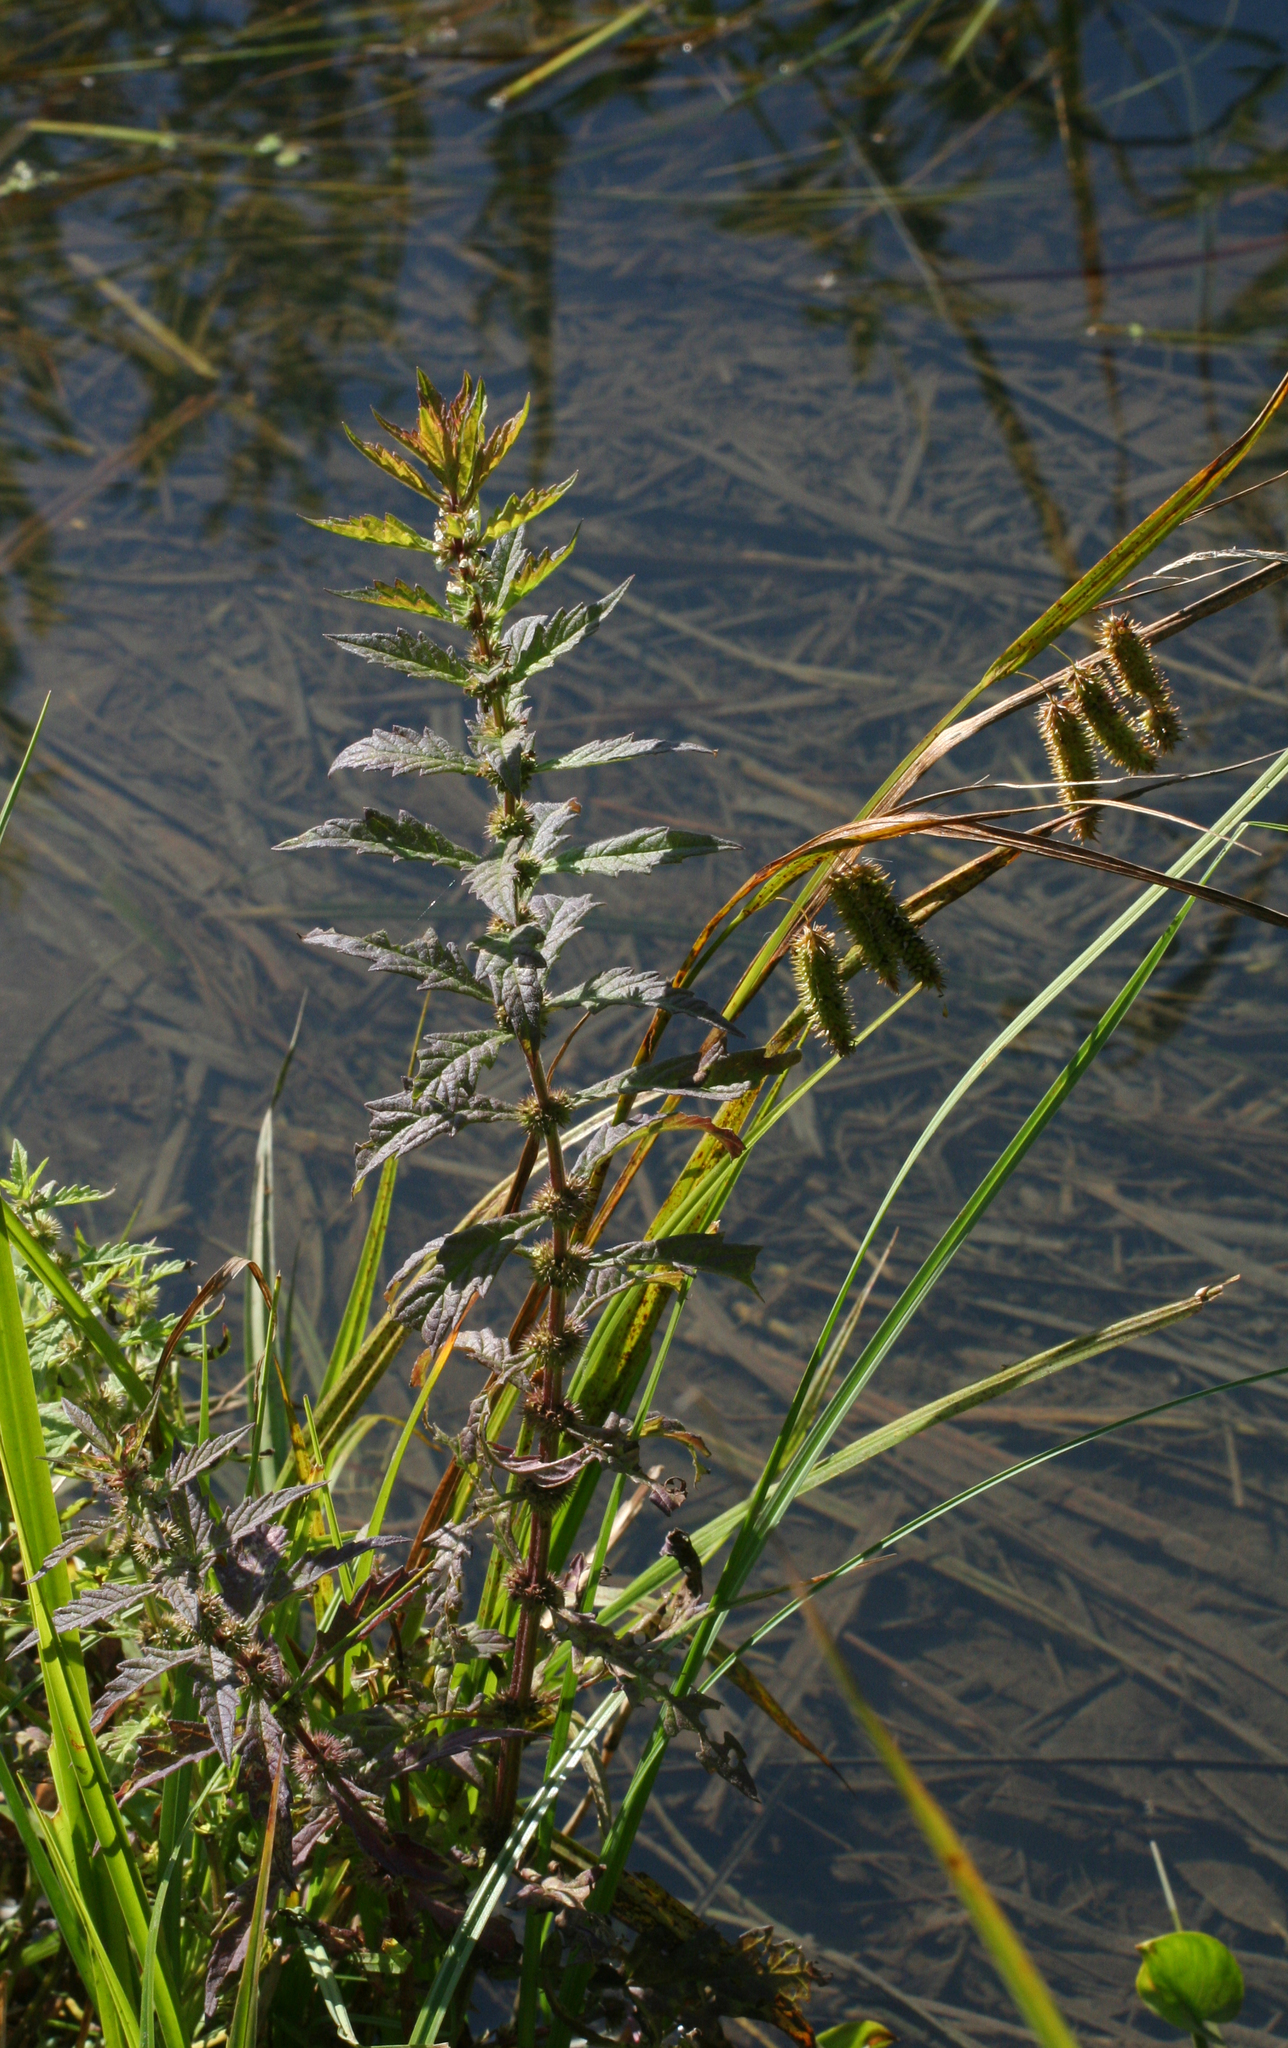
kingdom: Plantae
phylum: Tracheophyta
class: Magnoliopsida
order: Lamiales
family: Lamiaceae
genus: Lycopus
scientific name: Lycopus europaeus
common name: European bugleweed
